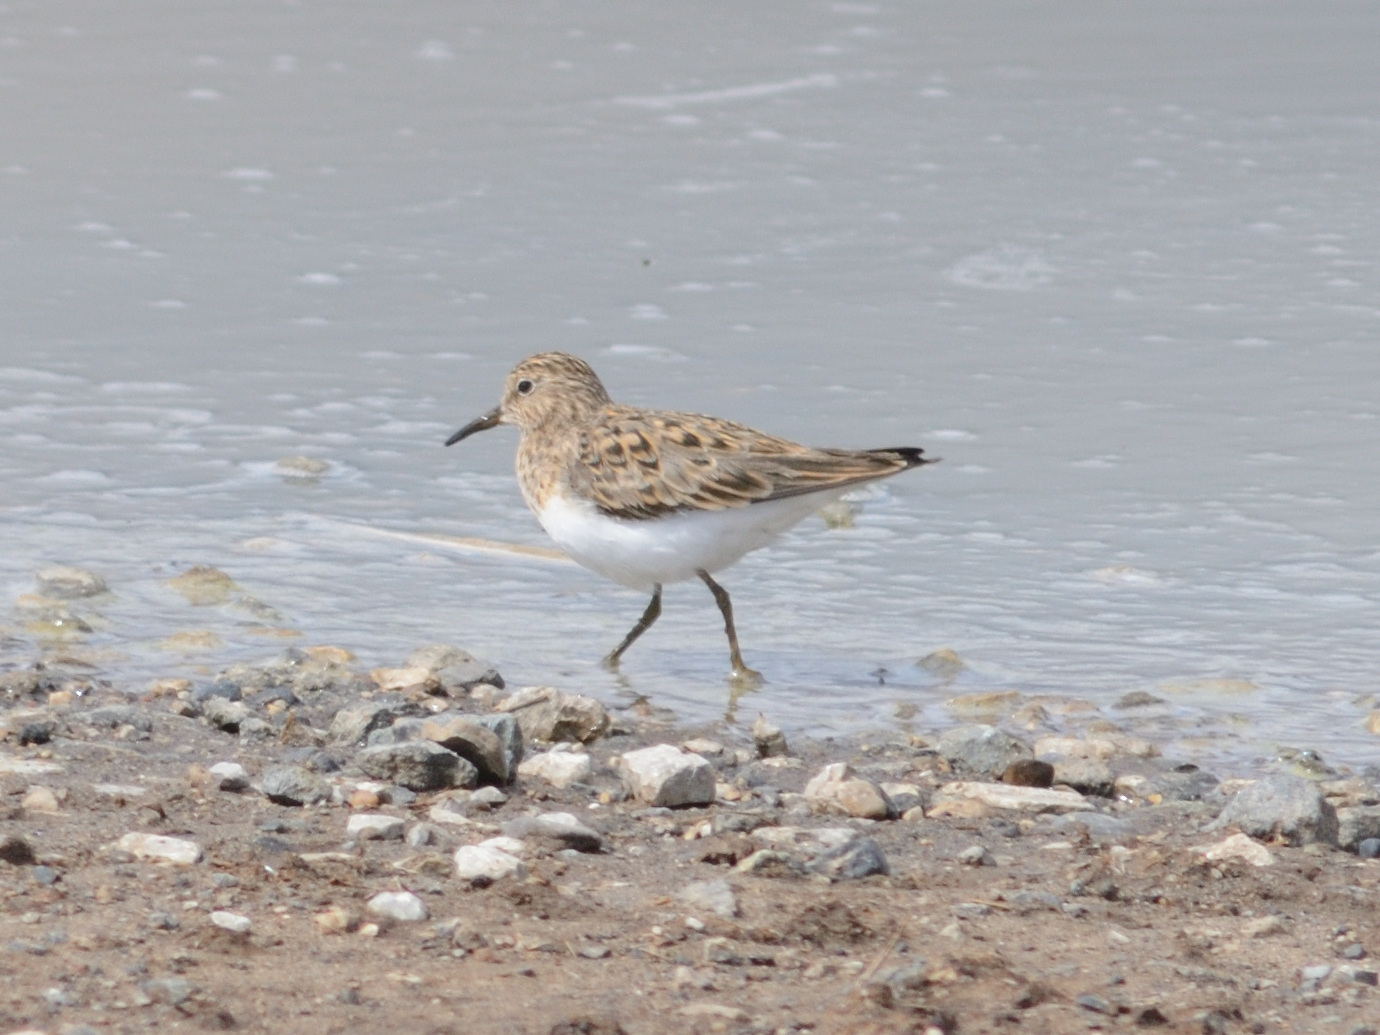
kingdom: Animalia
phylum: Chordata
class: Aves
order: Charadriiformes
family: Scolopacidae
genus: Calidris
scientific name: Calidris temminckii
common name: Temminck's stint
